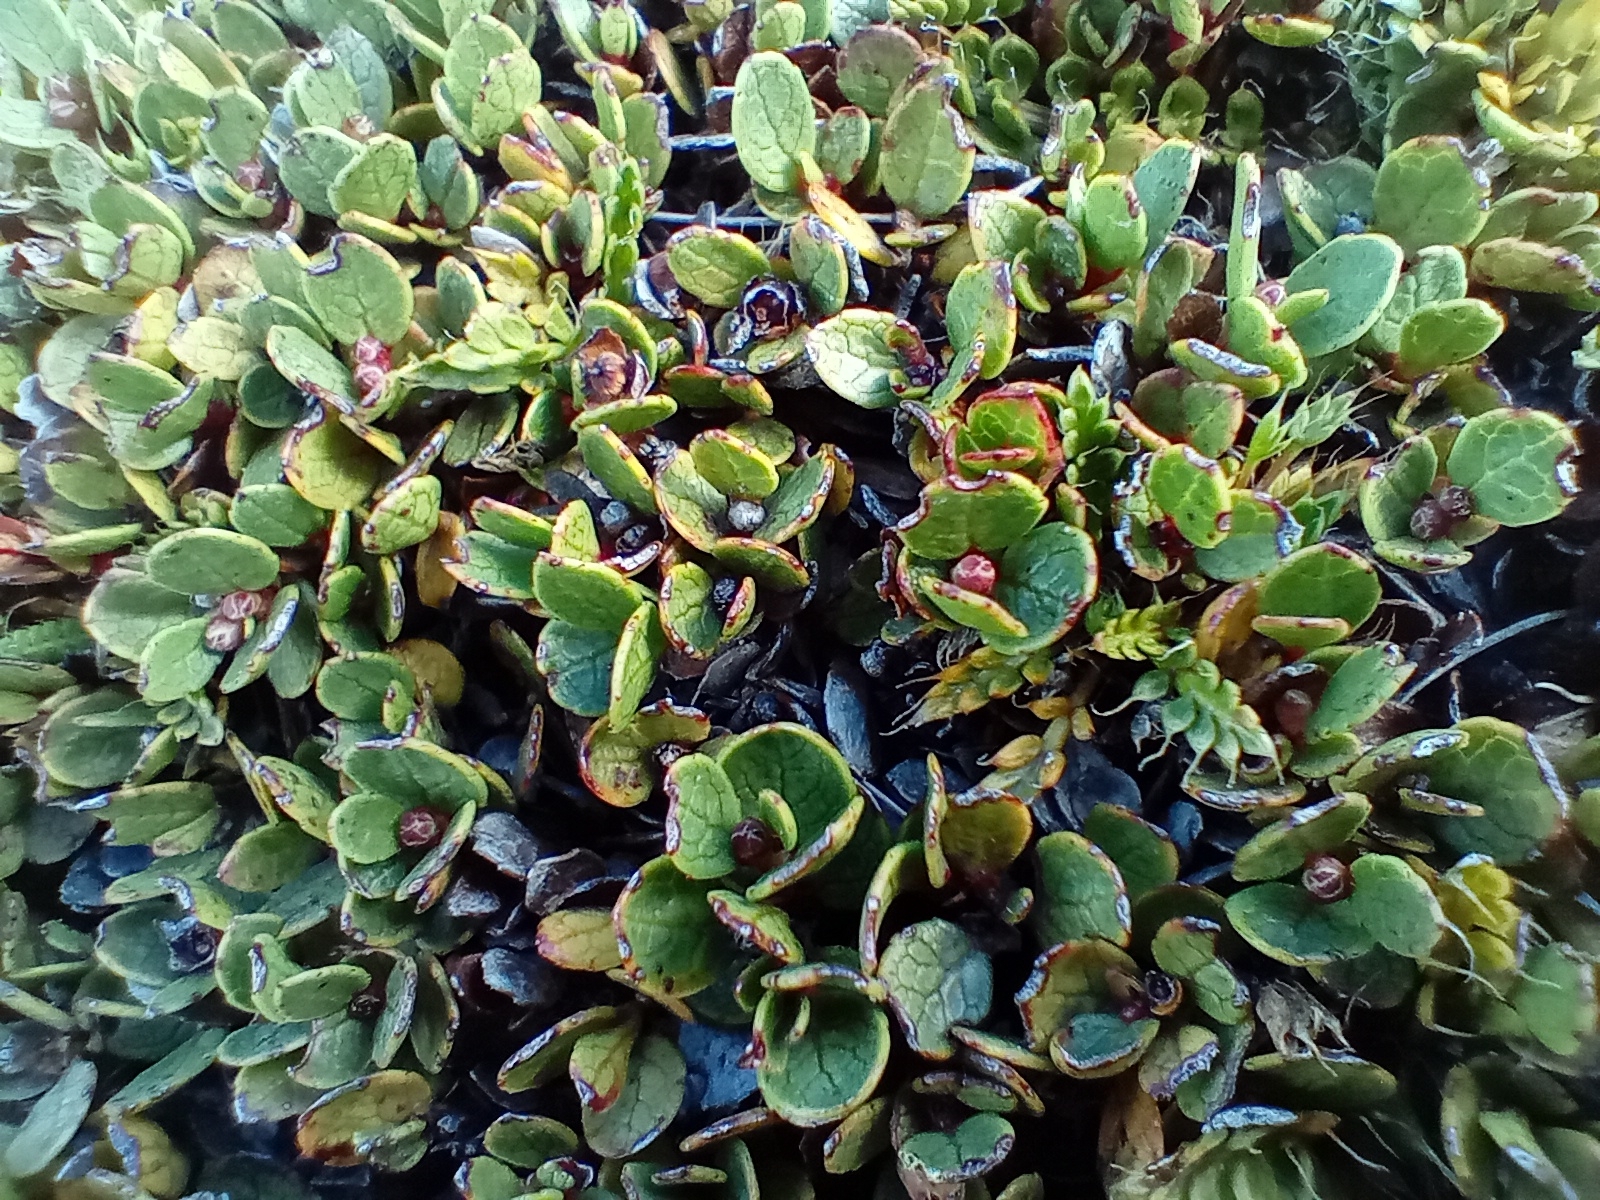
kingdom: Plantae
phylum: Tracheophyta
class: Magnoliopsida
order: Ericales
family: Ericaceae
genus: Gaultheria
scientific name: Gaultheria nubicola
